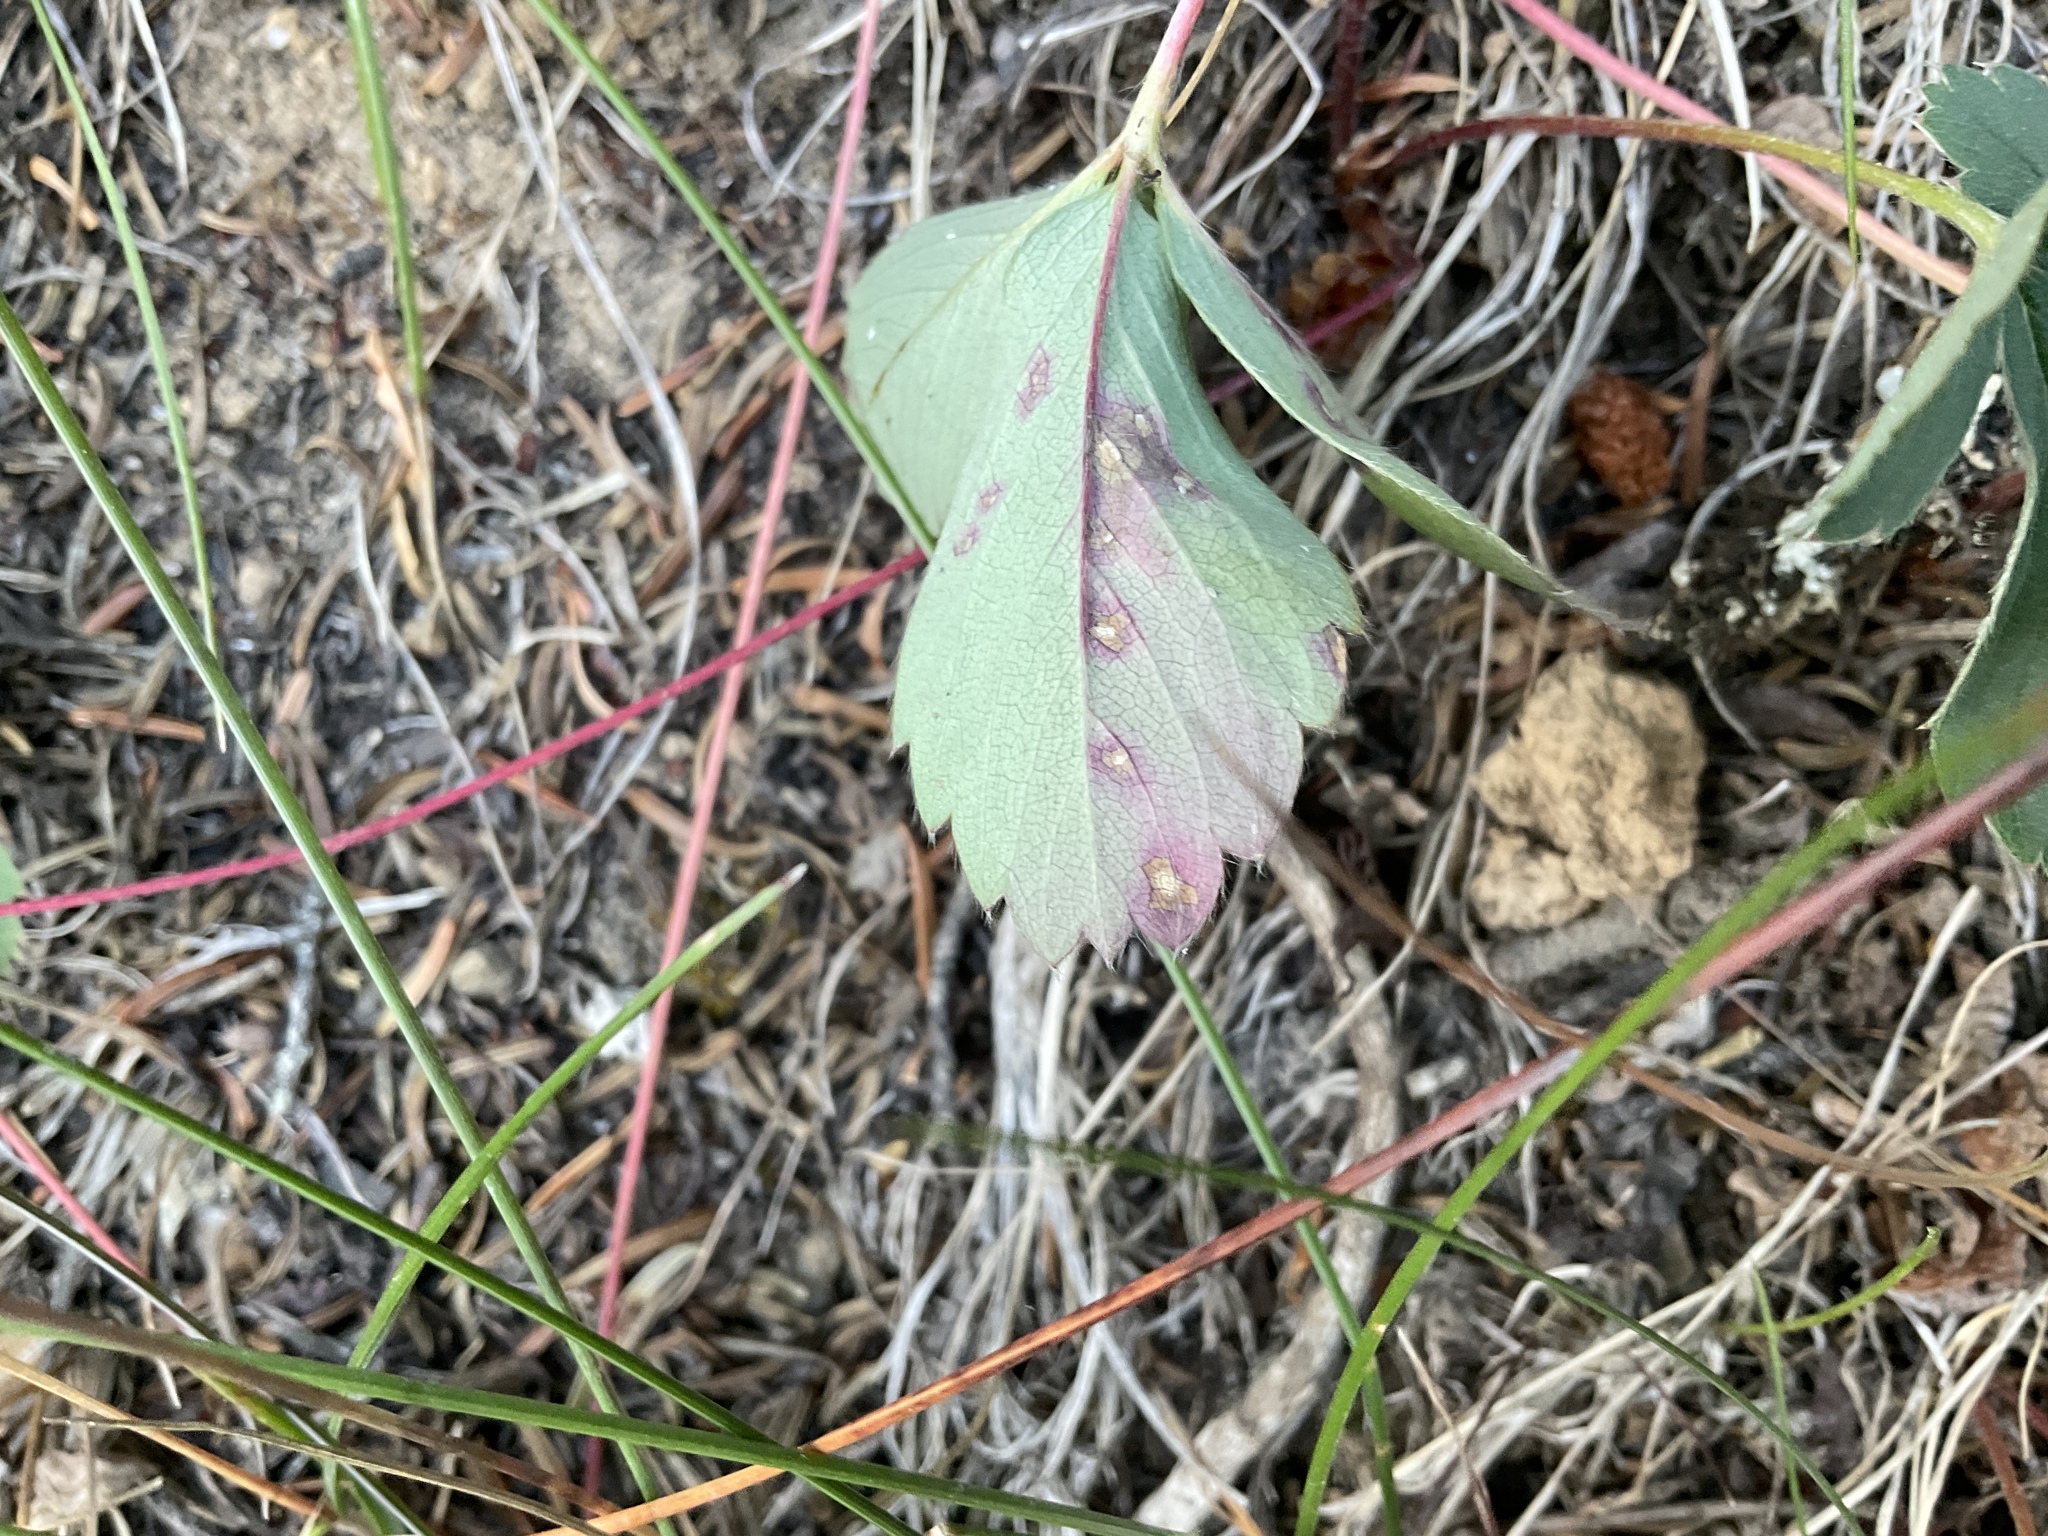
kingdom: Plantae
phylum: Tracheophyta
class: Magnoliopsida
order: Rosales
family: Rosaceae
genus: Fragaria
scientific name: Fragaria virginiana
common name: Thickleaved wild strawberry
